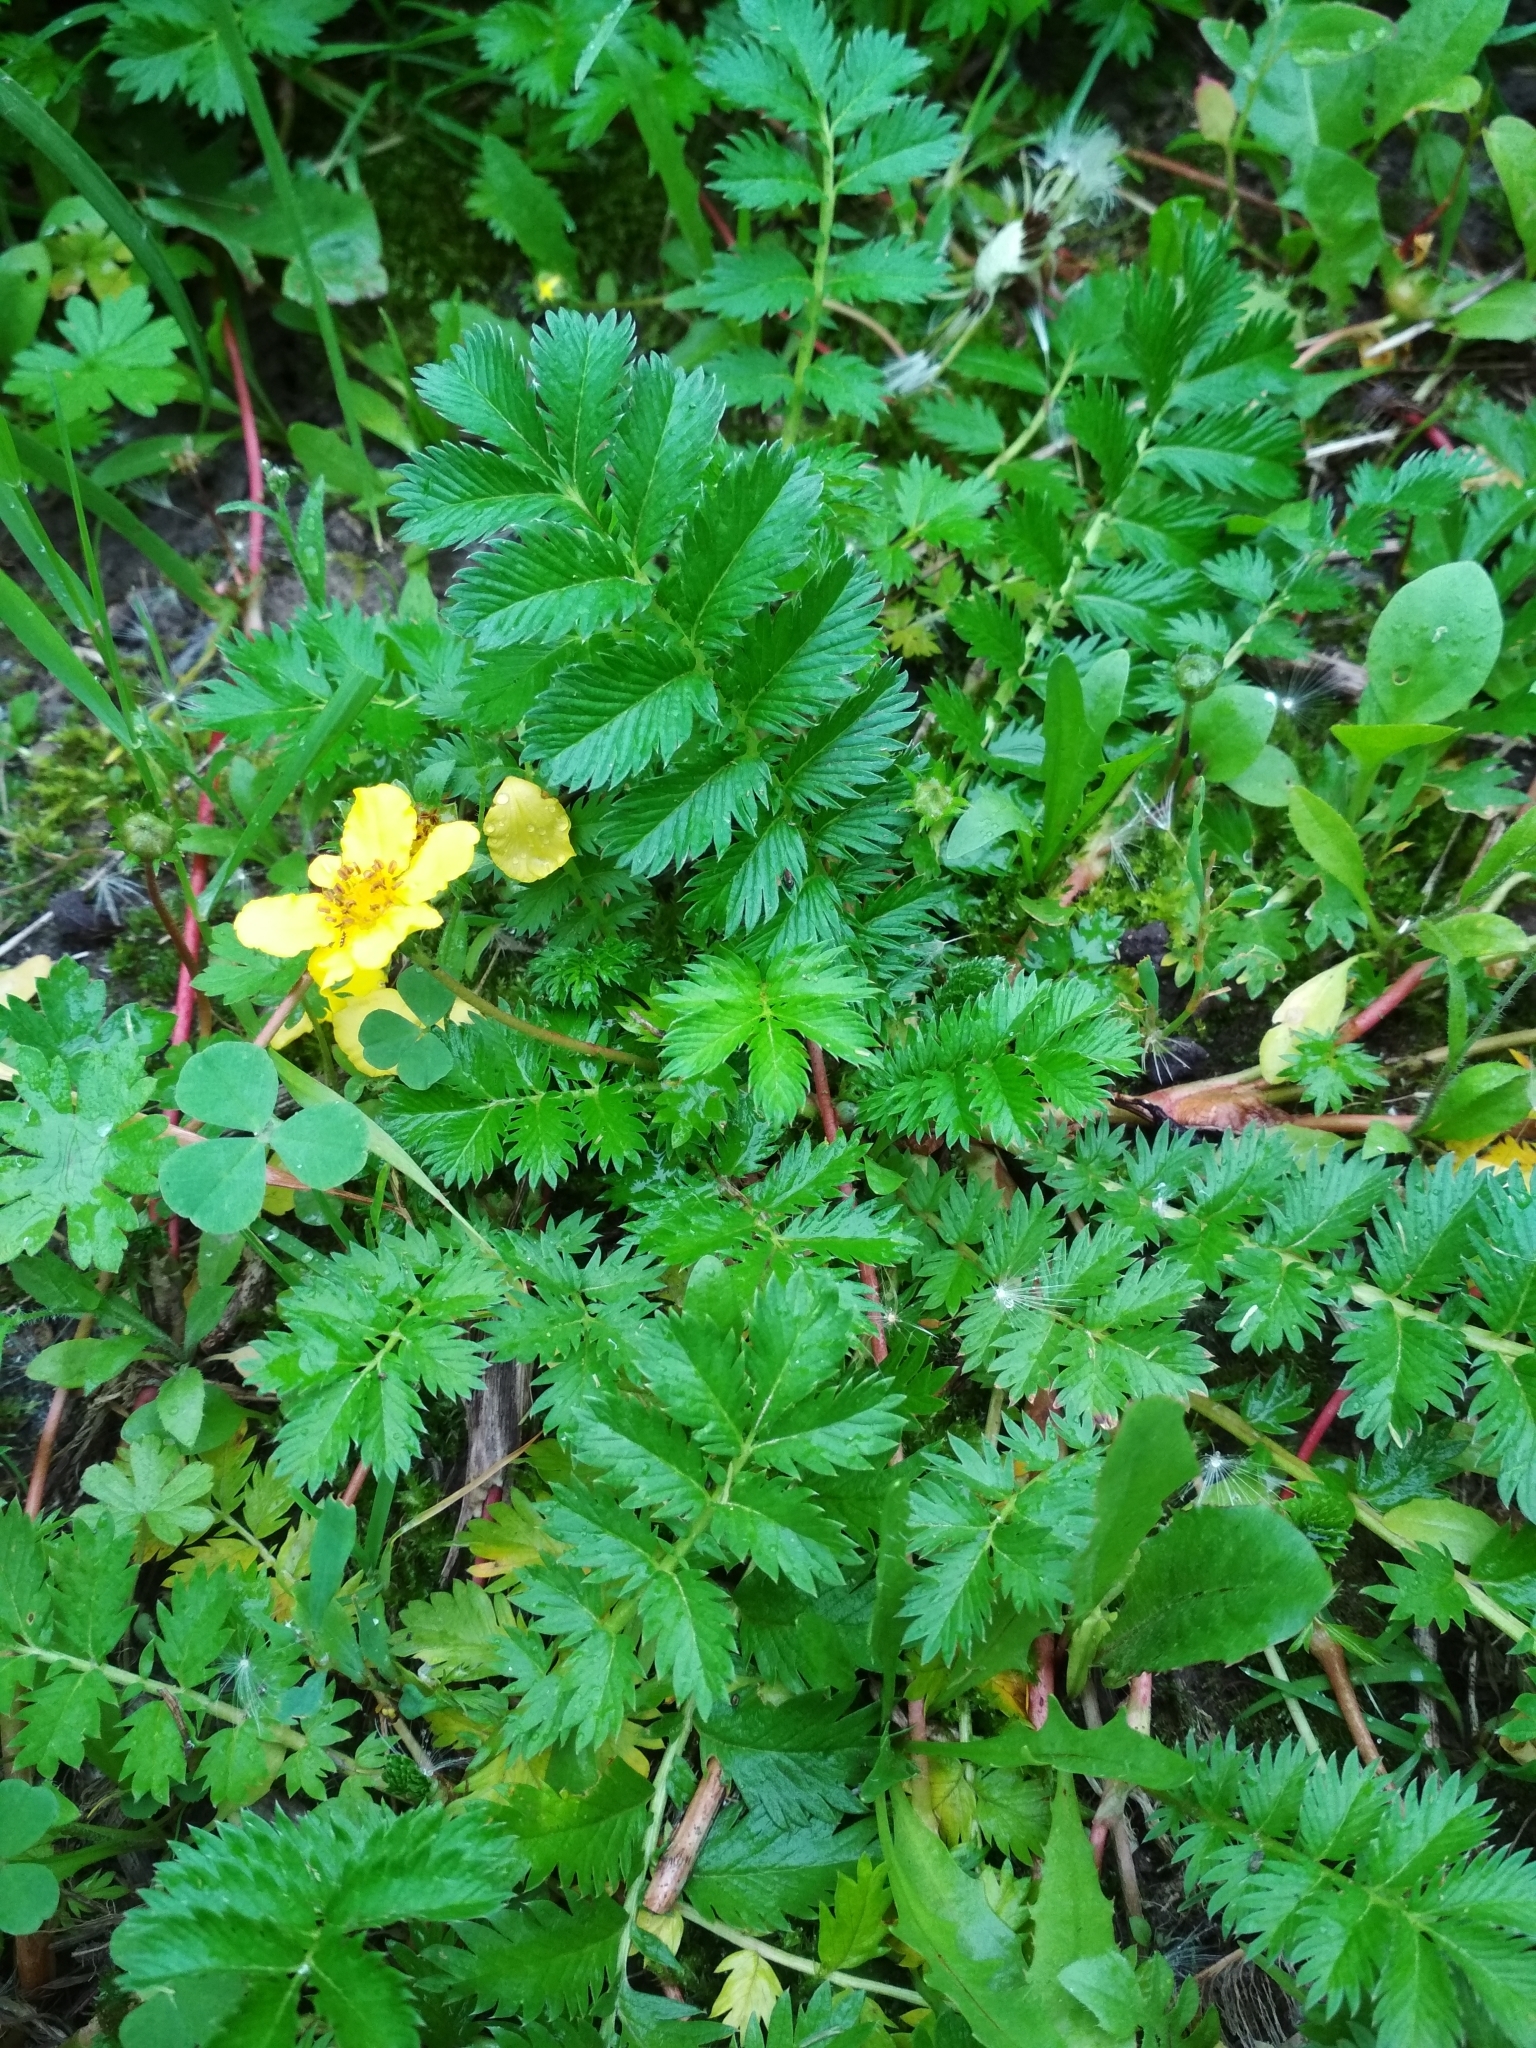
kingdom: Plantae
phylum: Tracheophyta
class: Magnoliopsida
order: Rosales
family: Rosaceae
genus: Argentina
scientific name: Argentina anserina
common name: Common silverweed
